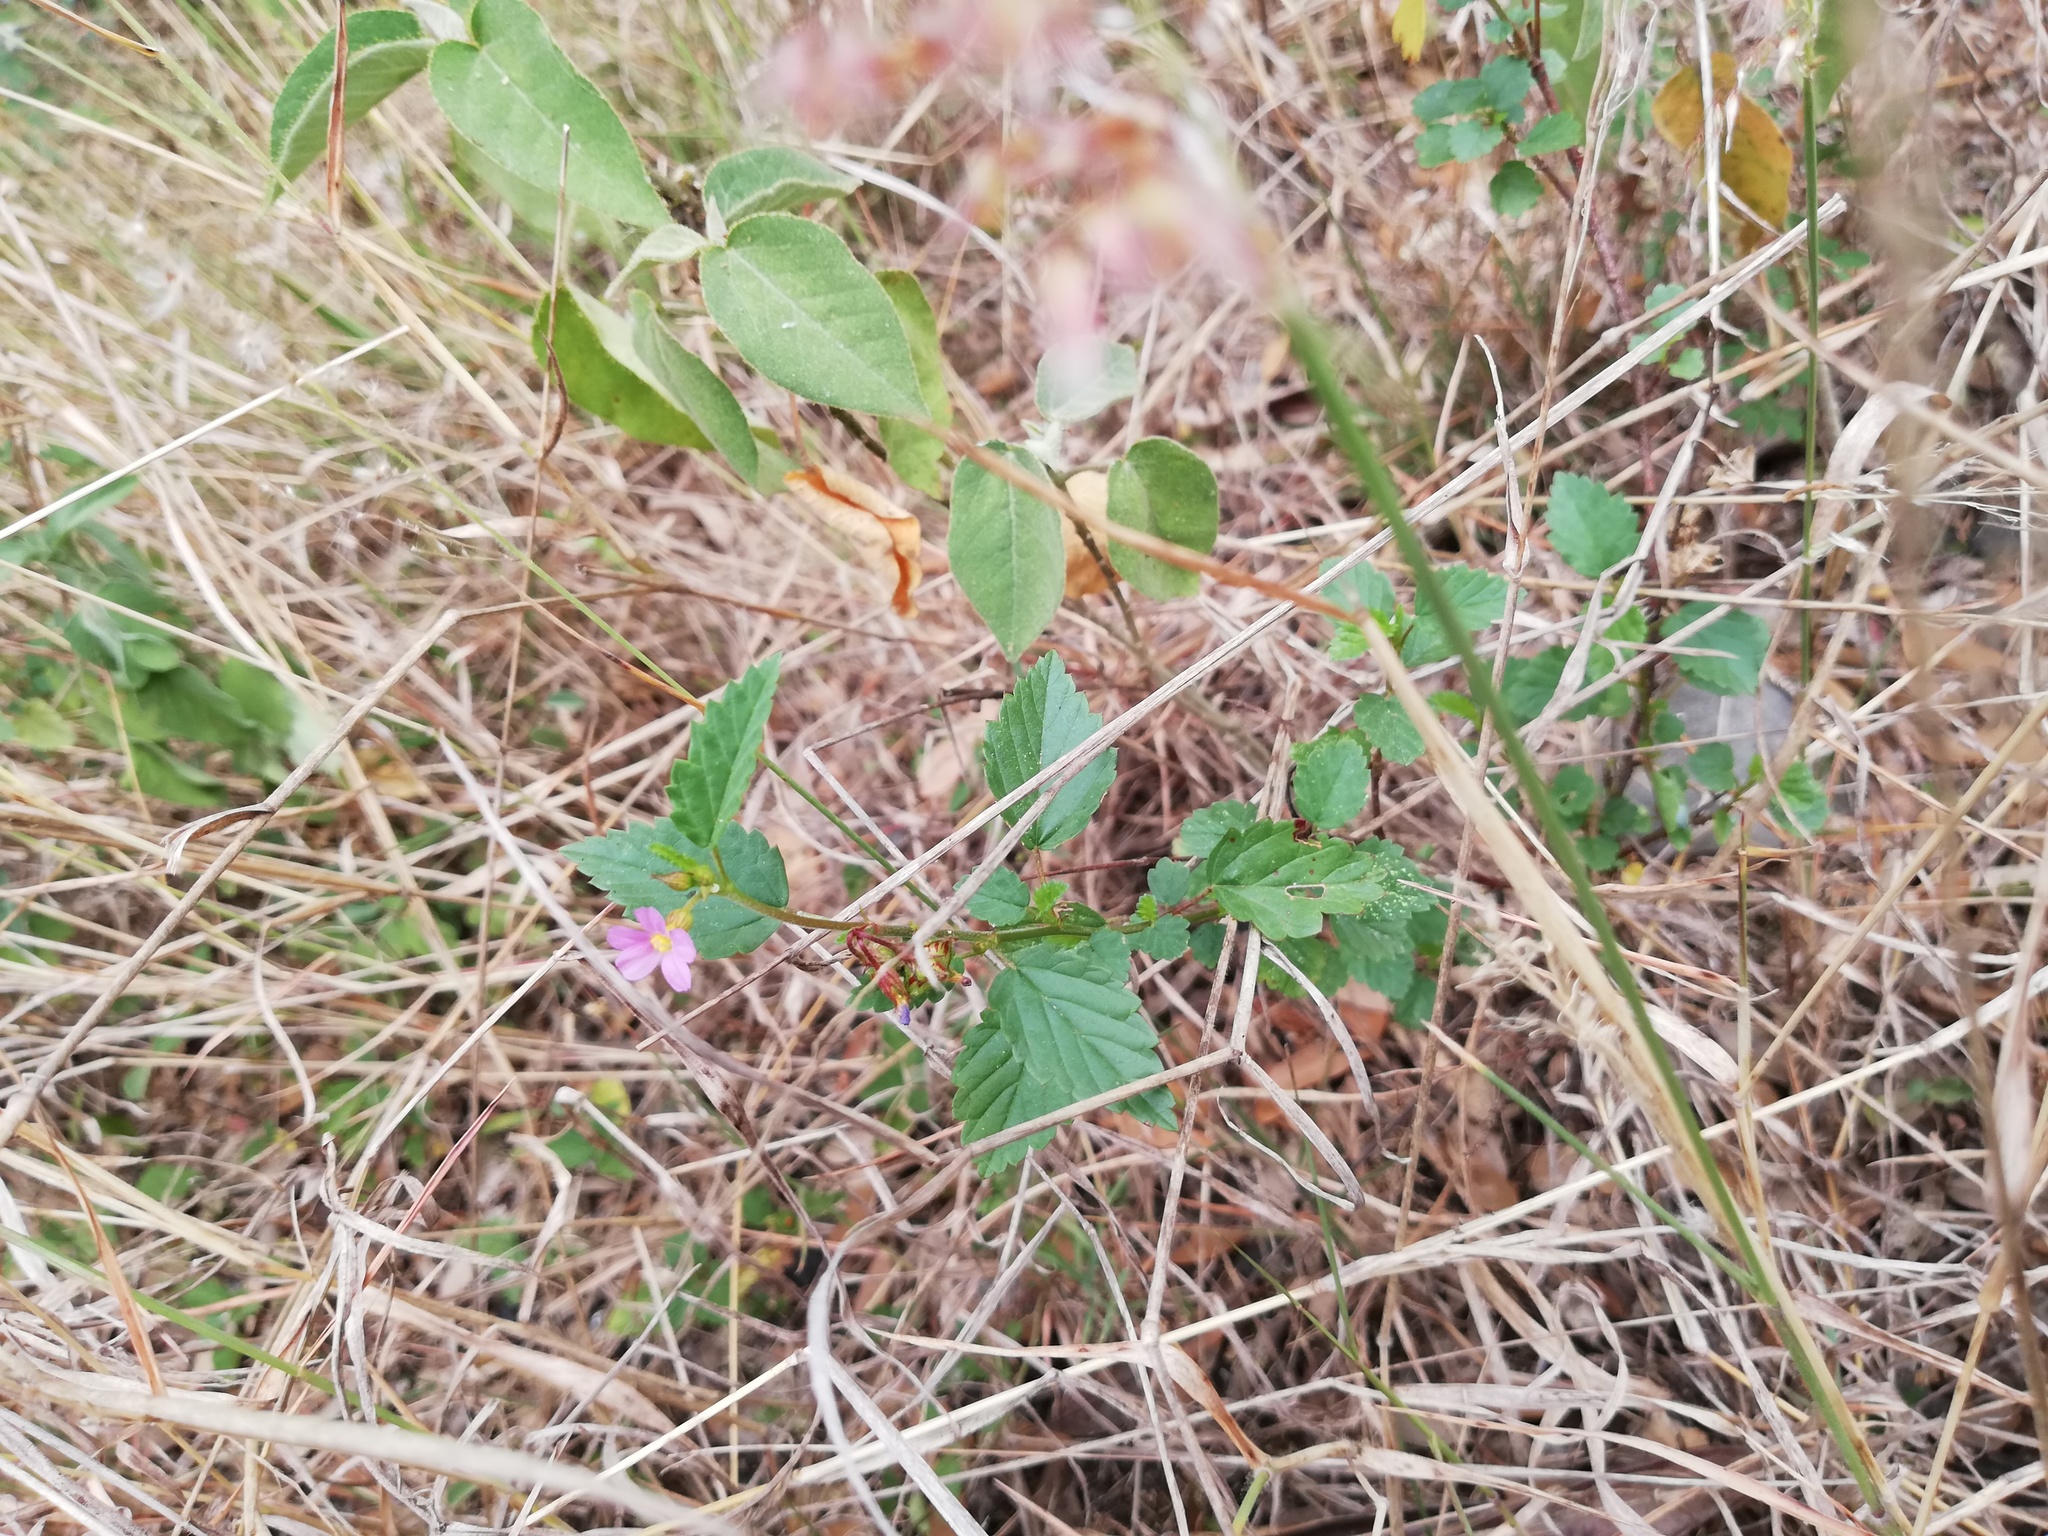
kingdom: Plantae
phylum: Tracheophyta
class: Magnoliopsida
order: Malvales
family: Malvaceae
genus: Melochia
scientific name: Melochia pyramidata
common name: Pyramidflower
